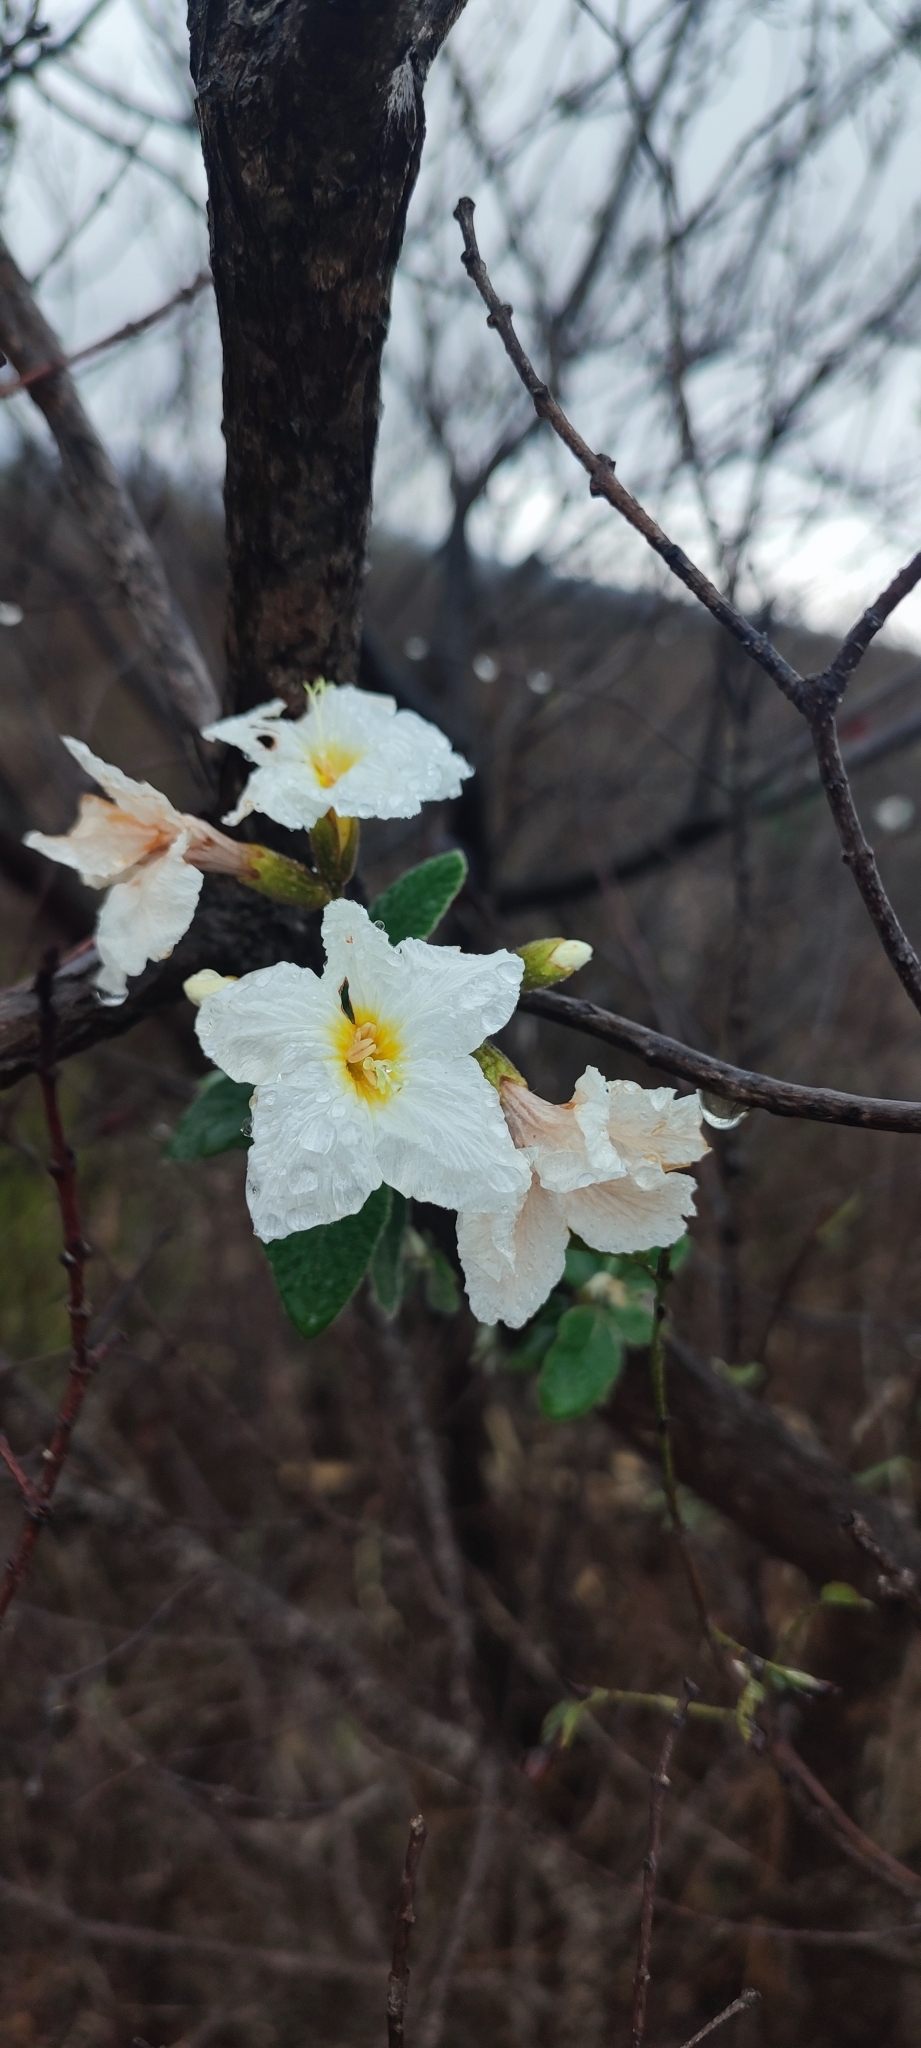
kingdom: Plantae
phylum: Tracheophyta
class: Magnoliopsida
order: Boraginales
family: Cordiaceae
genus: Cordia
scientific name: Cordia boissieri
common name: Mexican-olive
